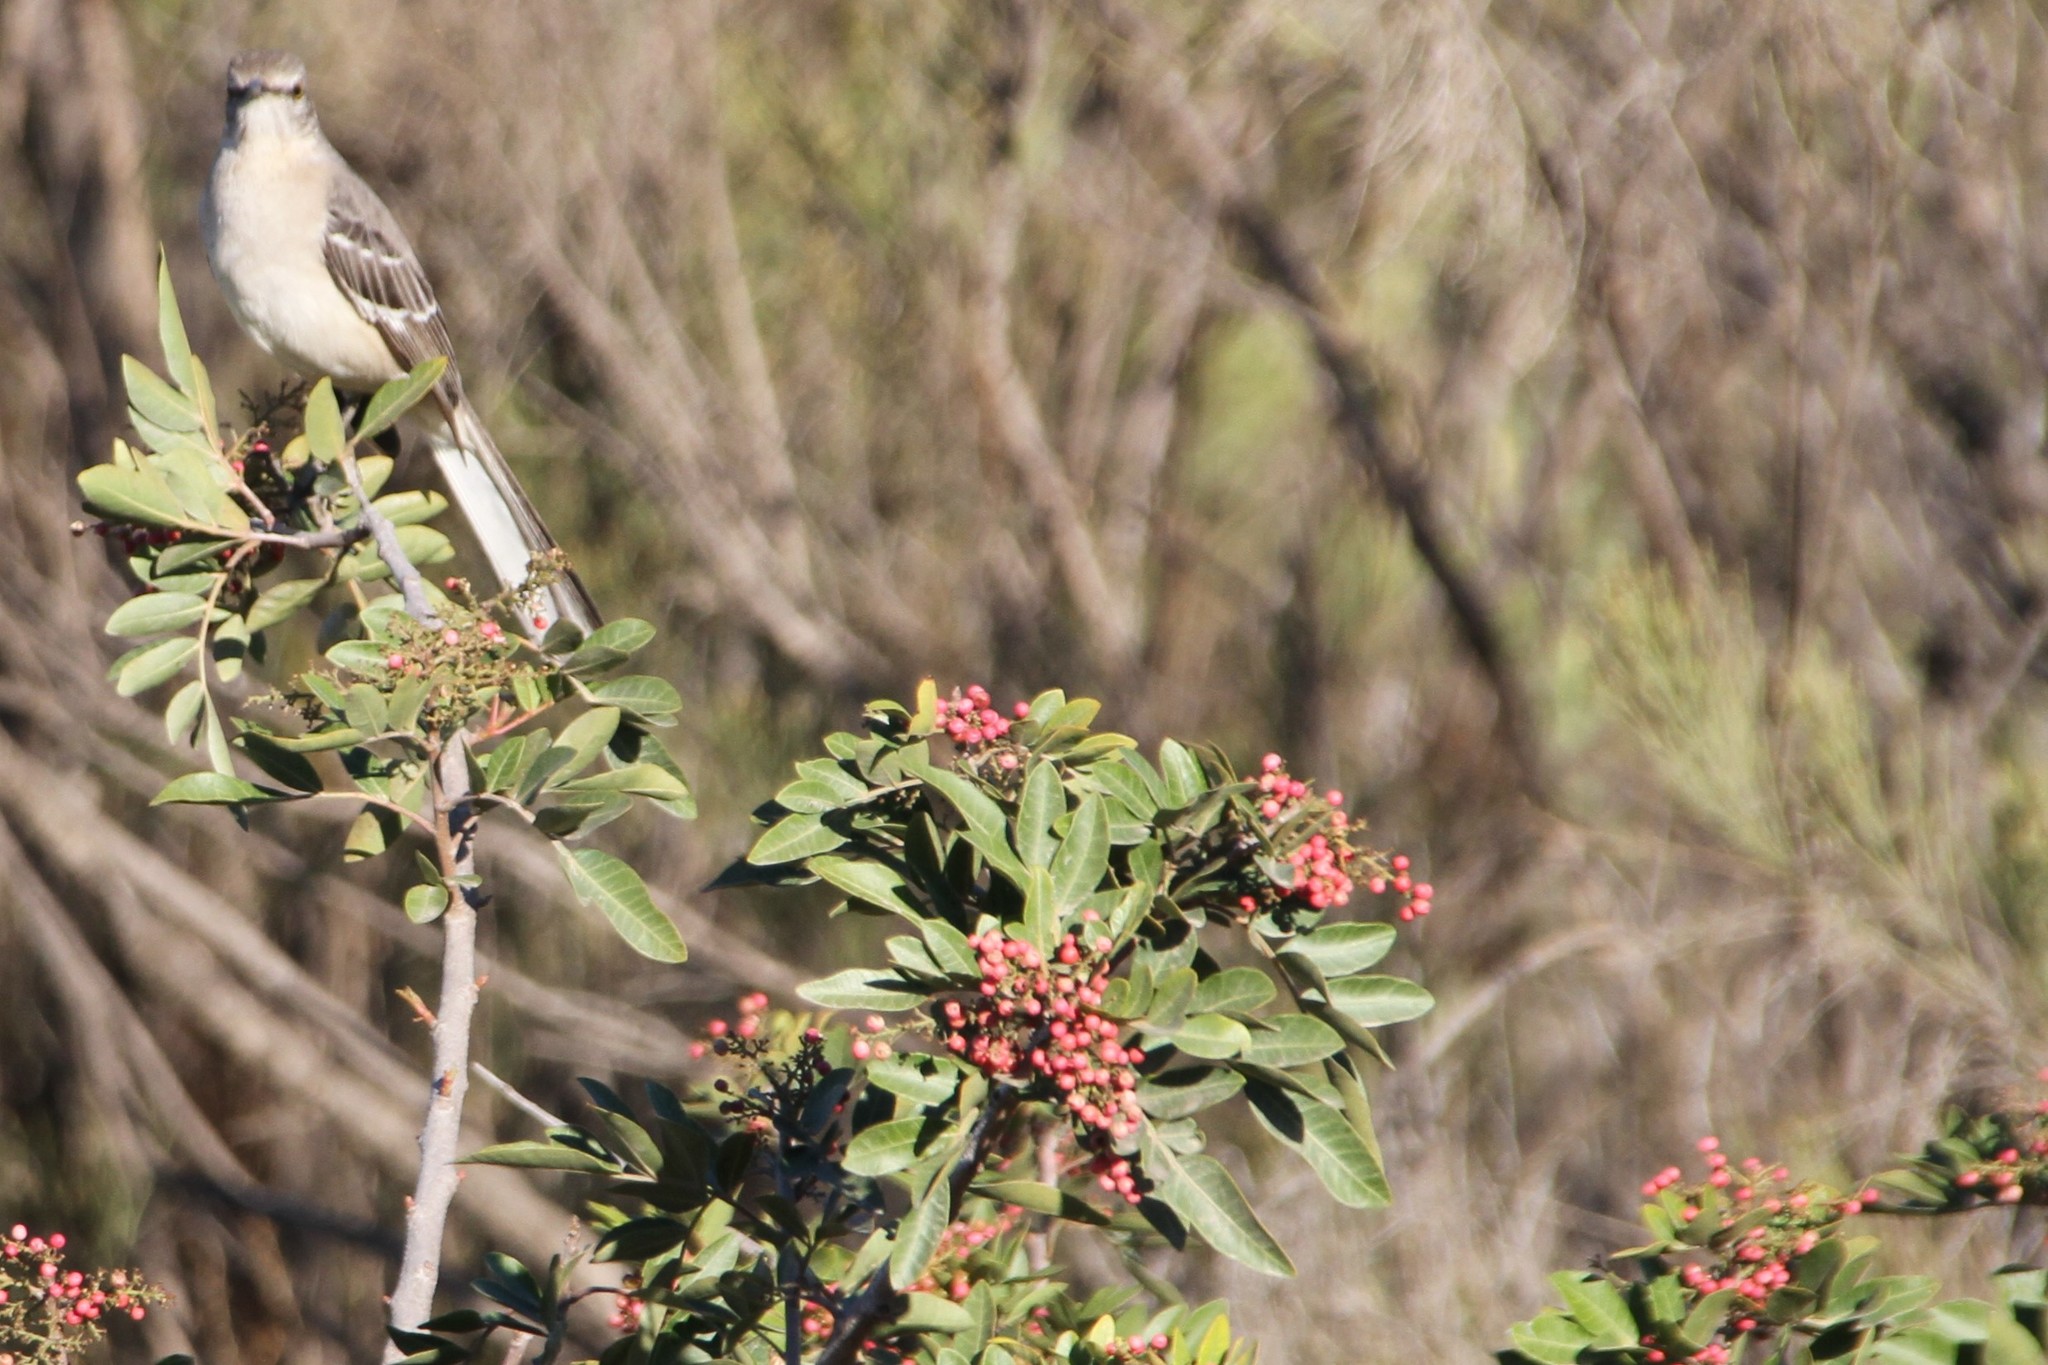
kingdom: Plantae
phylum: Tracheophyta
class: Magnoliopsida
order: Sapindales
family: Anacardiaceae
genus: Schinus
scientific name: Schinus terebinthifolia
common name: Brazilian peppertree
